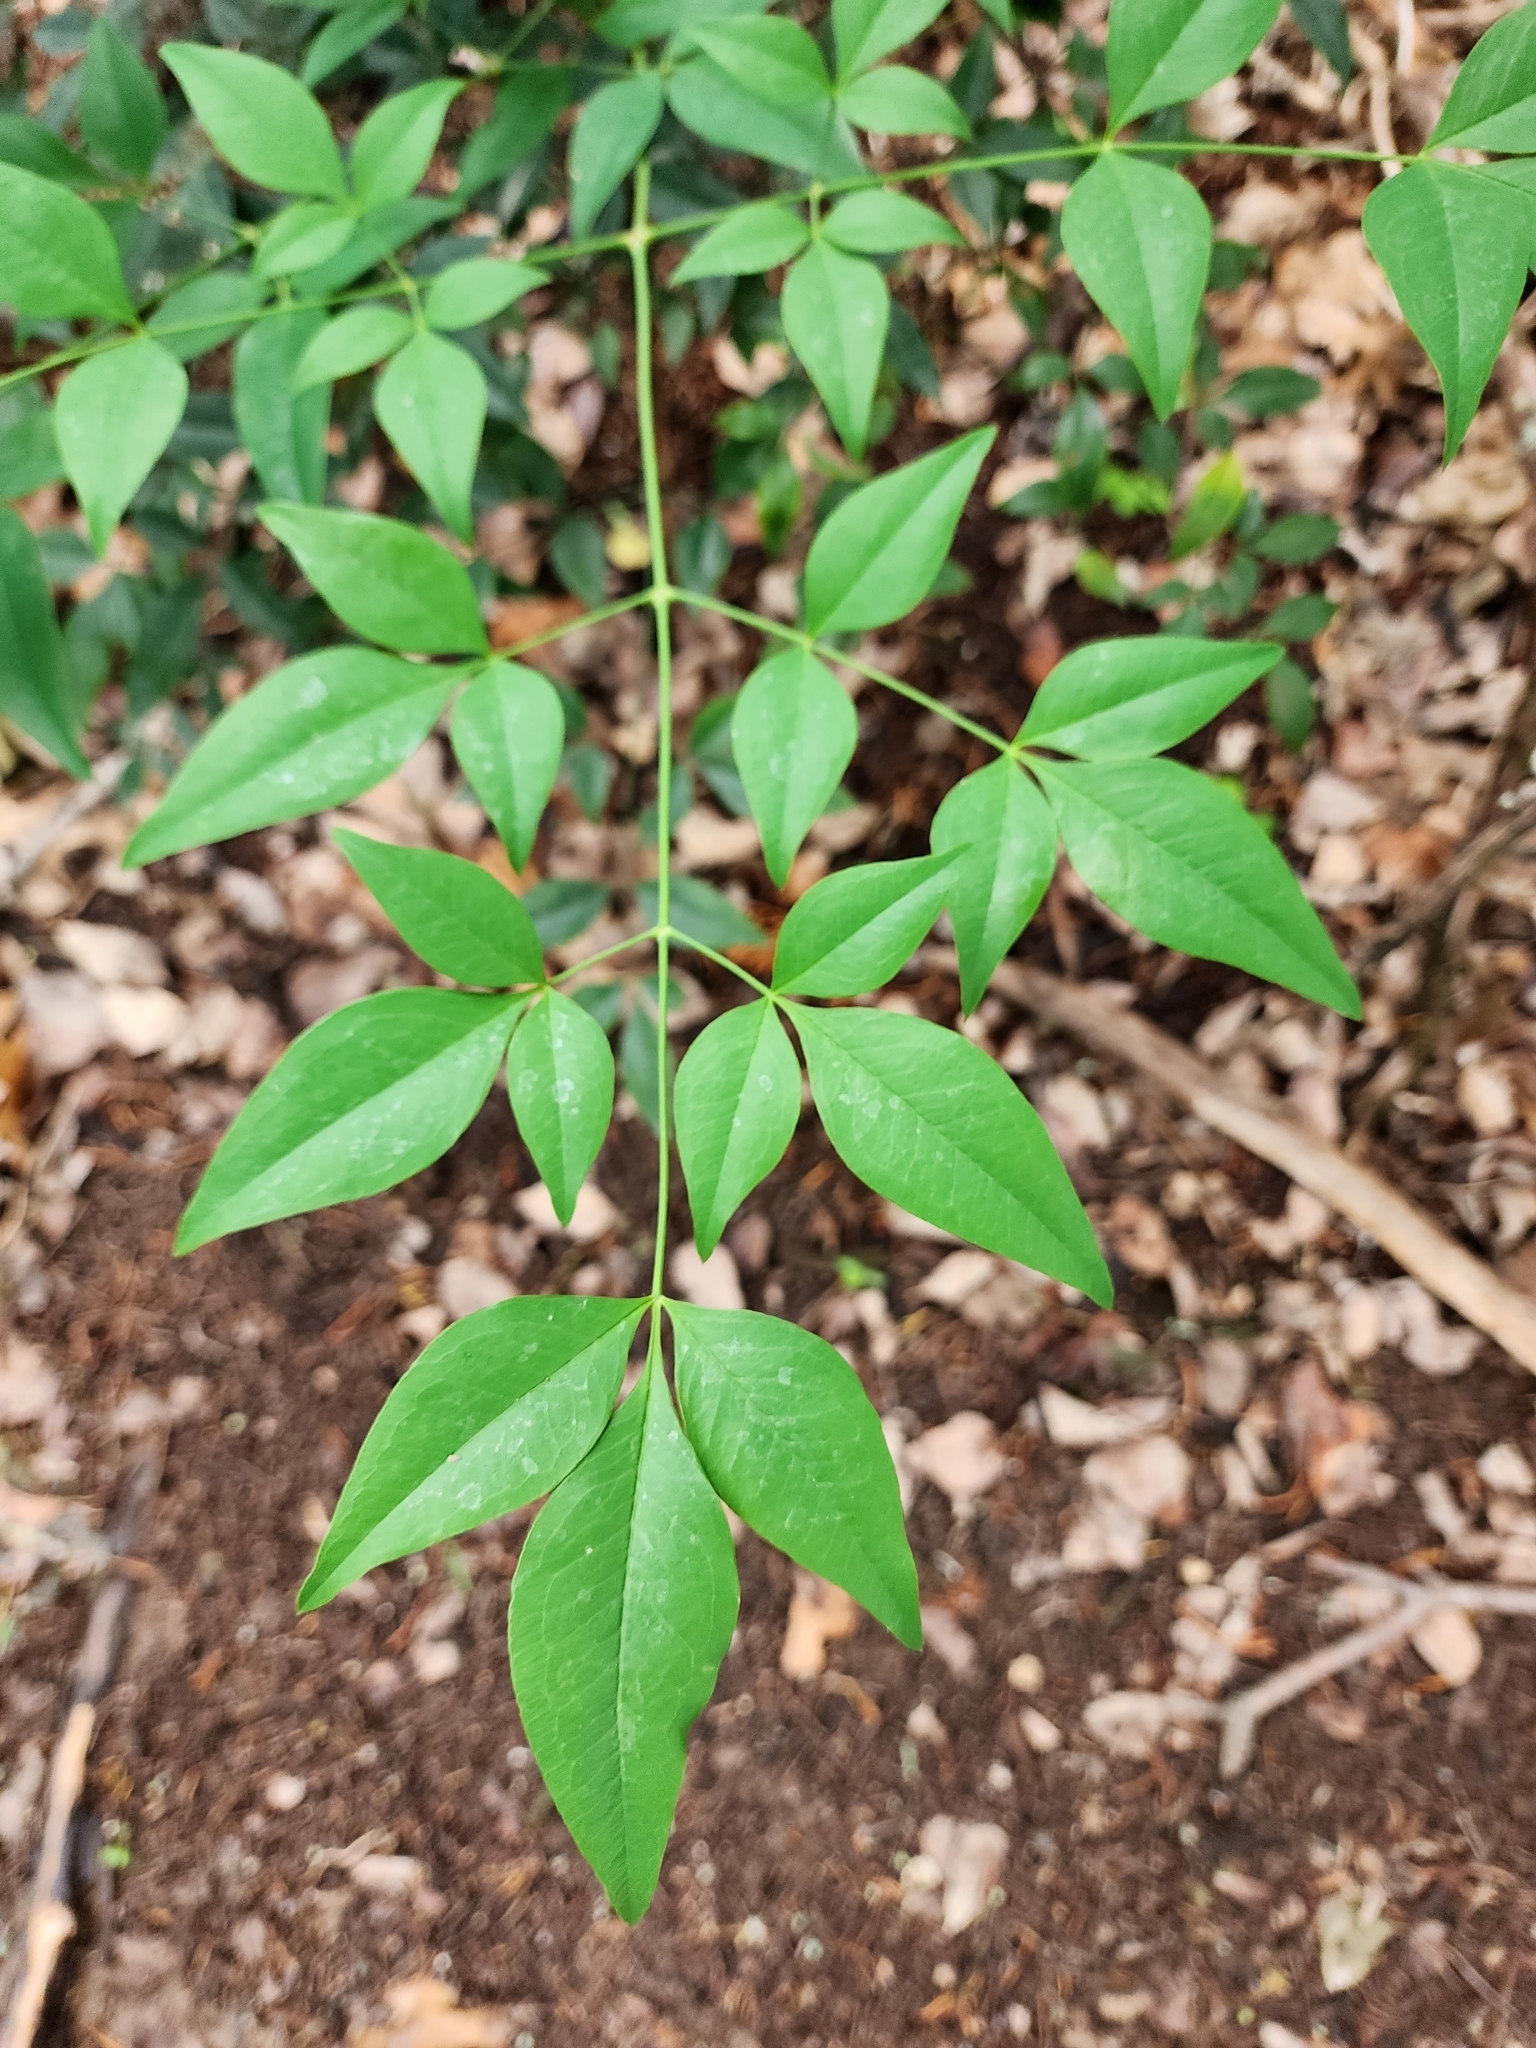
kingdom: Plantae
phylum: Tracheophyta
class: Magnoliopsida
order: Ranunculales
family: Berberidaceae
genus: Nandina
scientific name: Nandina domestica
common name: Sacred bamboo
